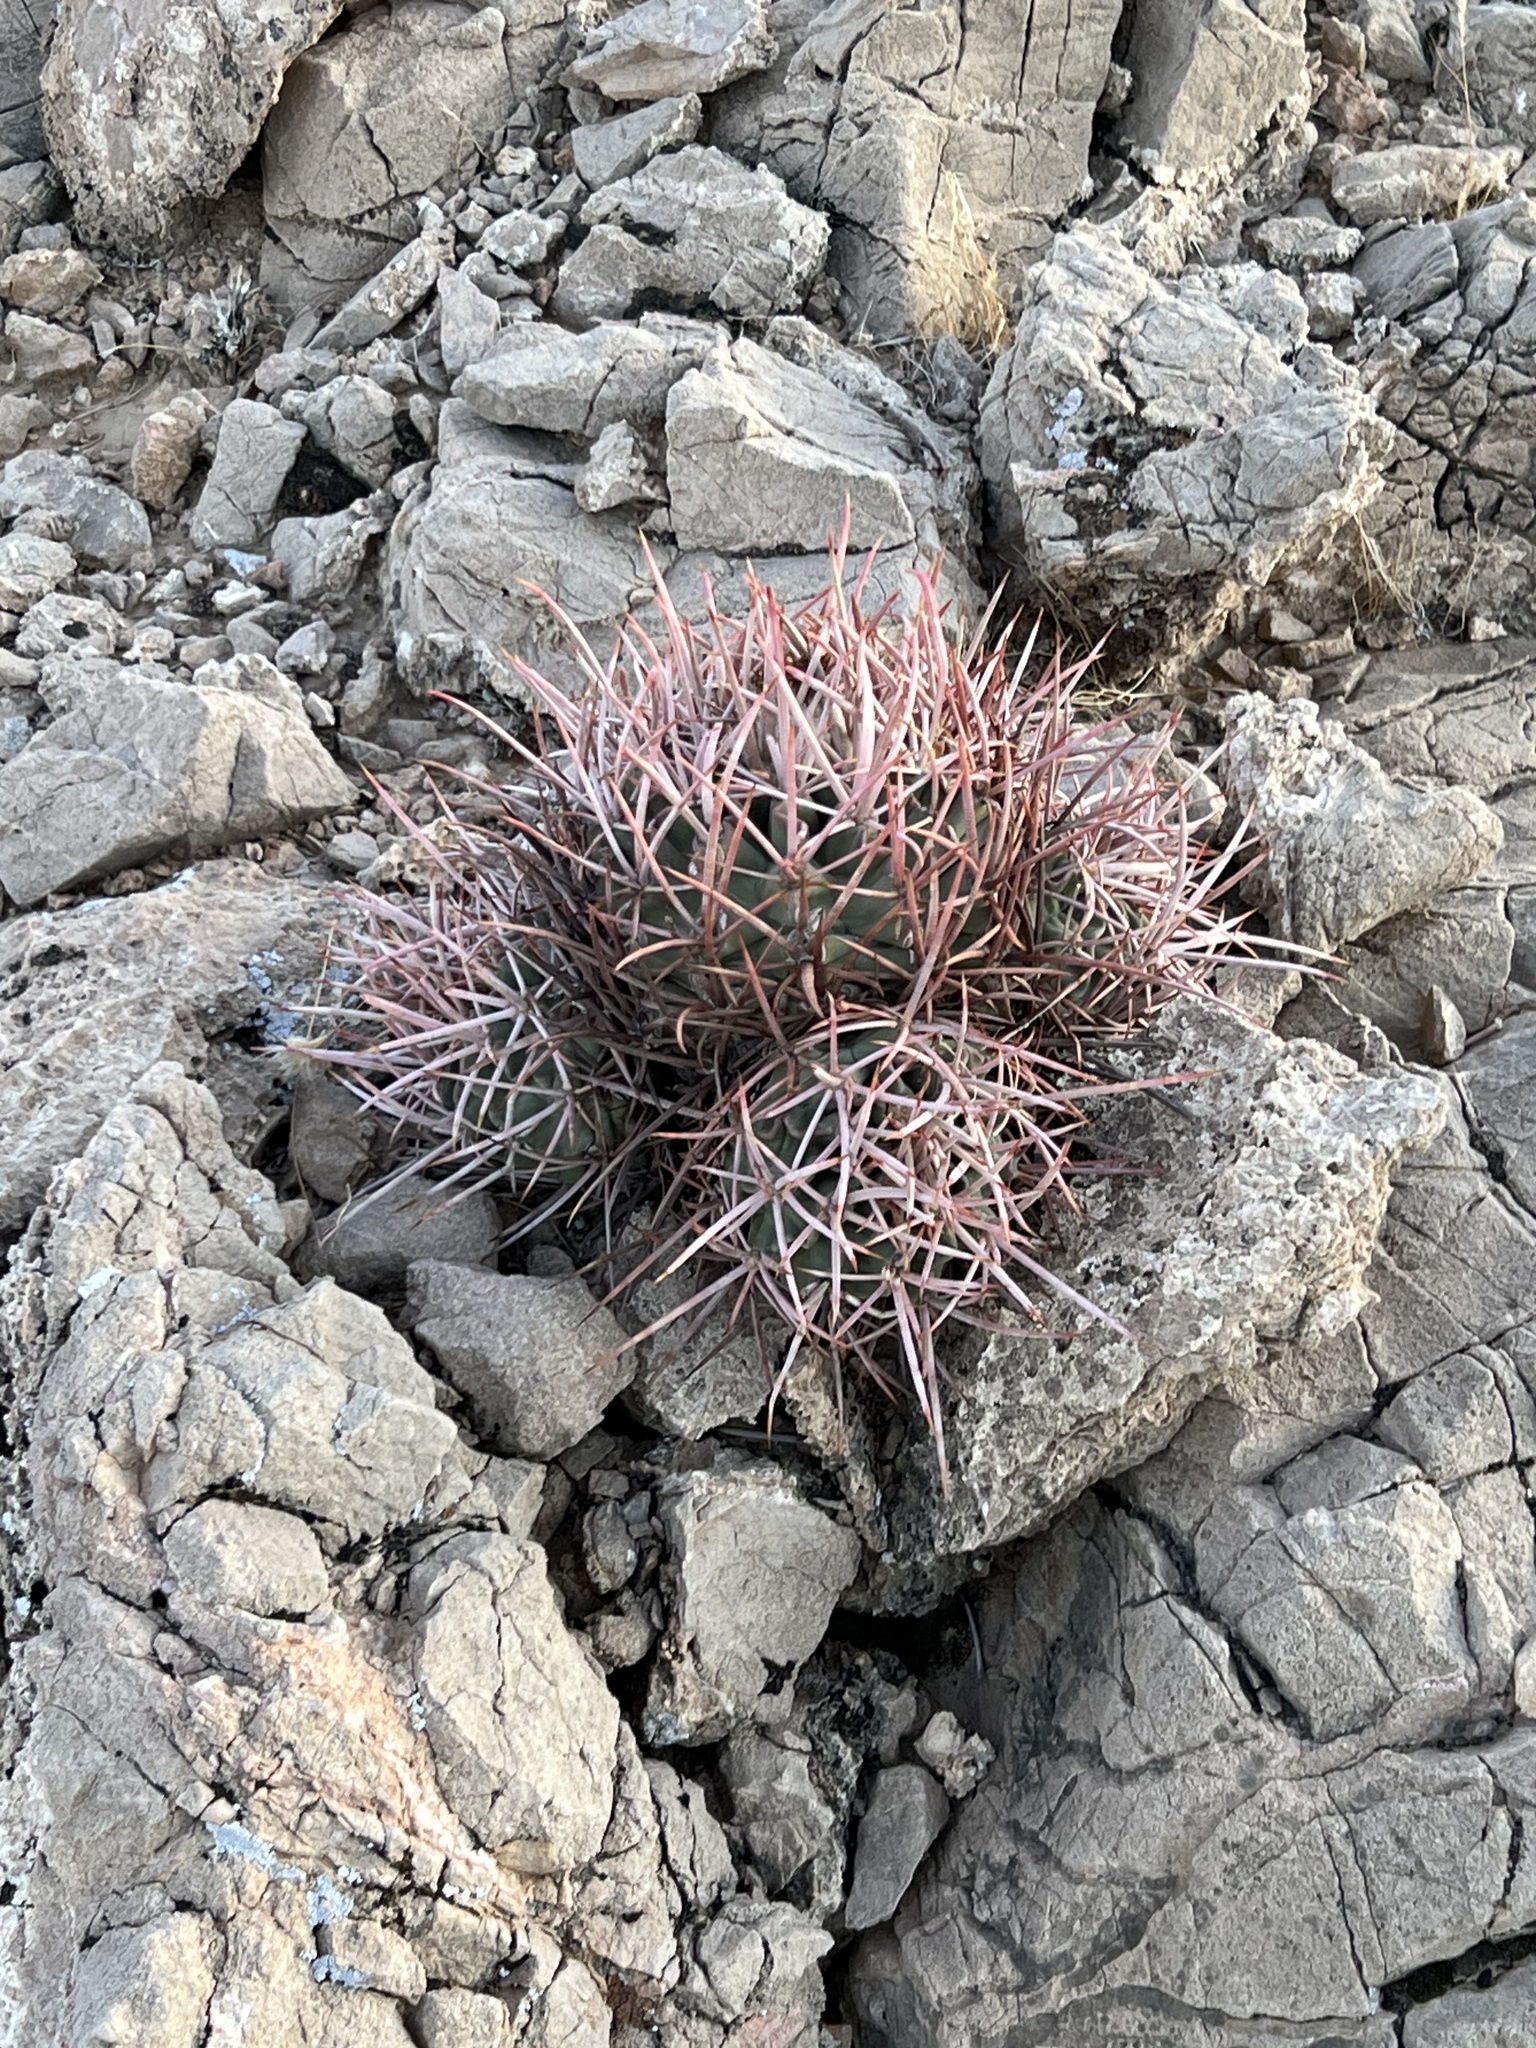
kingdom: Plantae
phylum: Tracheophyta
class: Magnoliopsida
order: Caryophyllales
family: Cactaceae
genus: Echinocactus
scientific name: Echinocactus polycephalus
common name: Cottontop cactus
